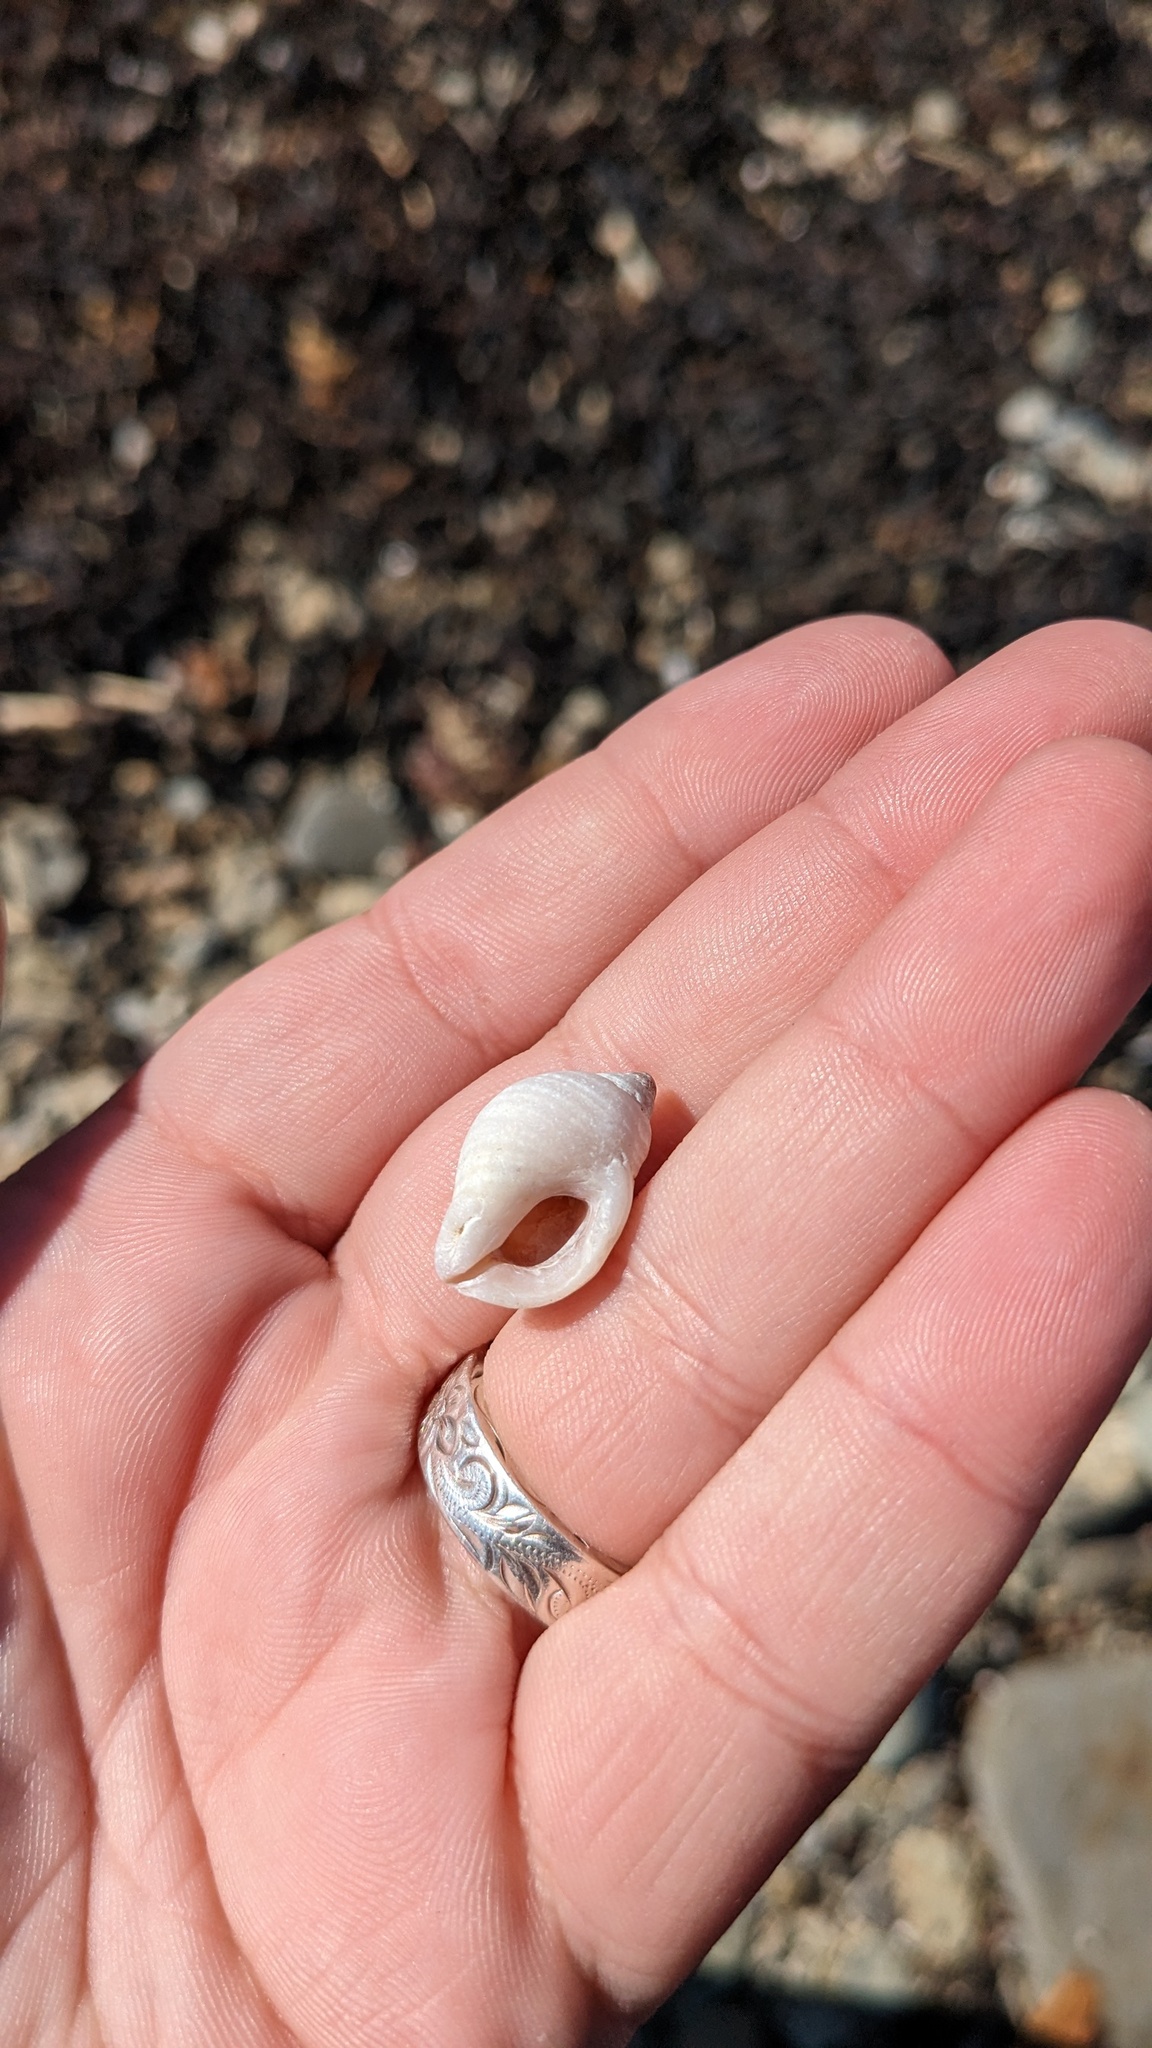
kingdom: Animalia
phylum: Mollusca
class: Gastropoda
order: Neogastropoda
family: Muricidae
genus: Nucella
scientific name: Nucella lapillus
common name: Dog whelk
